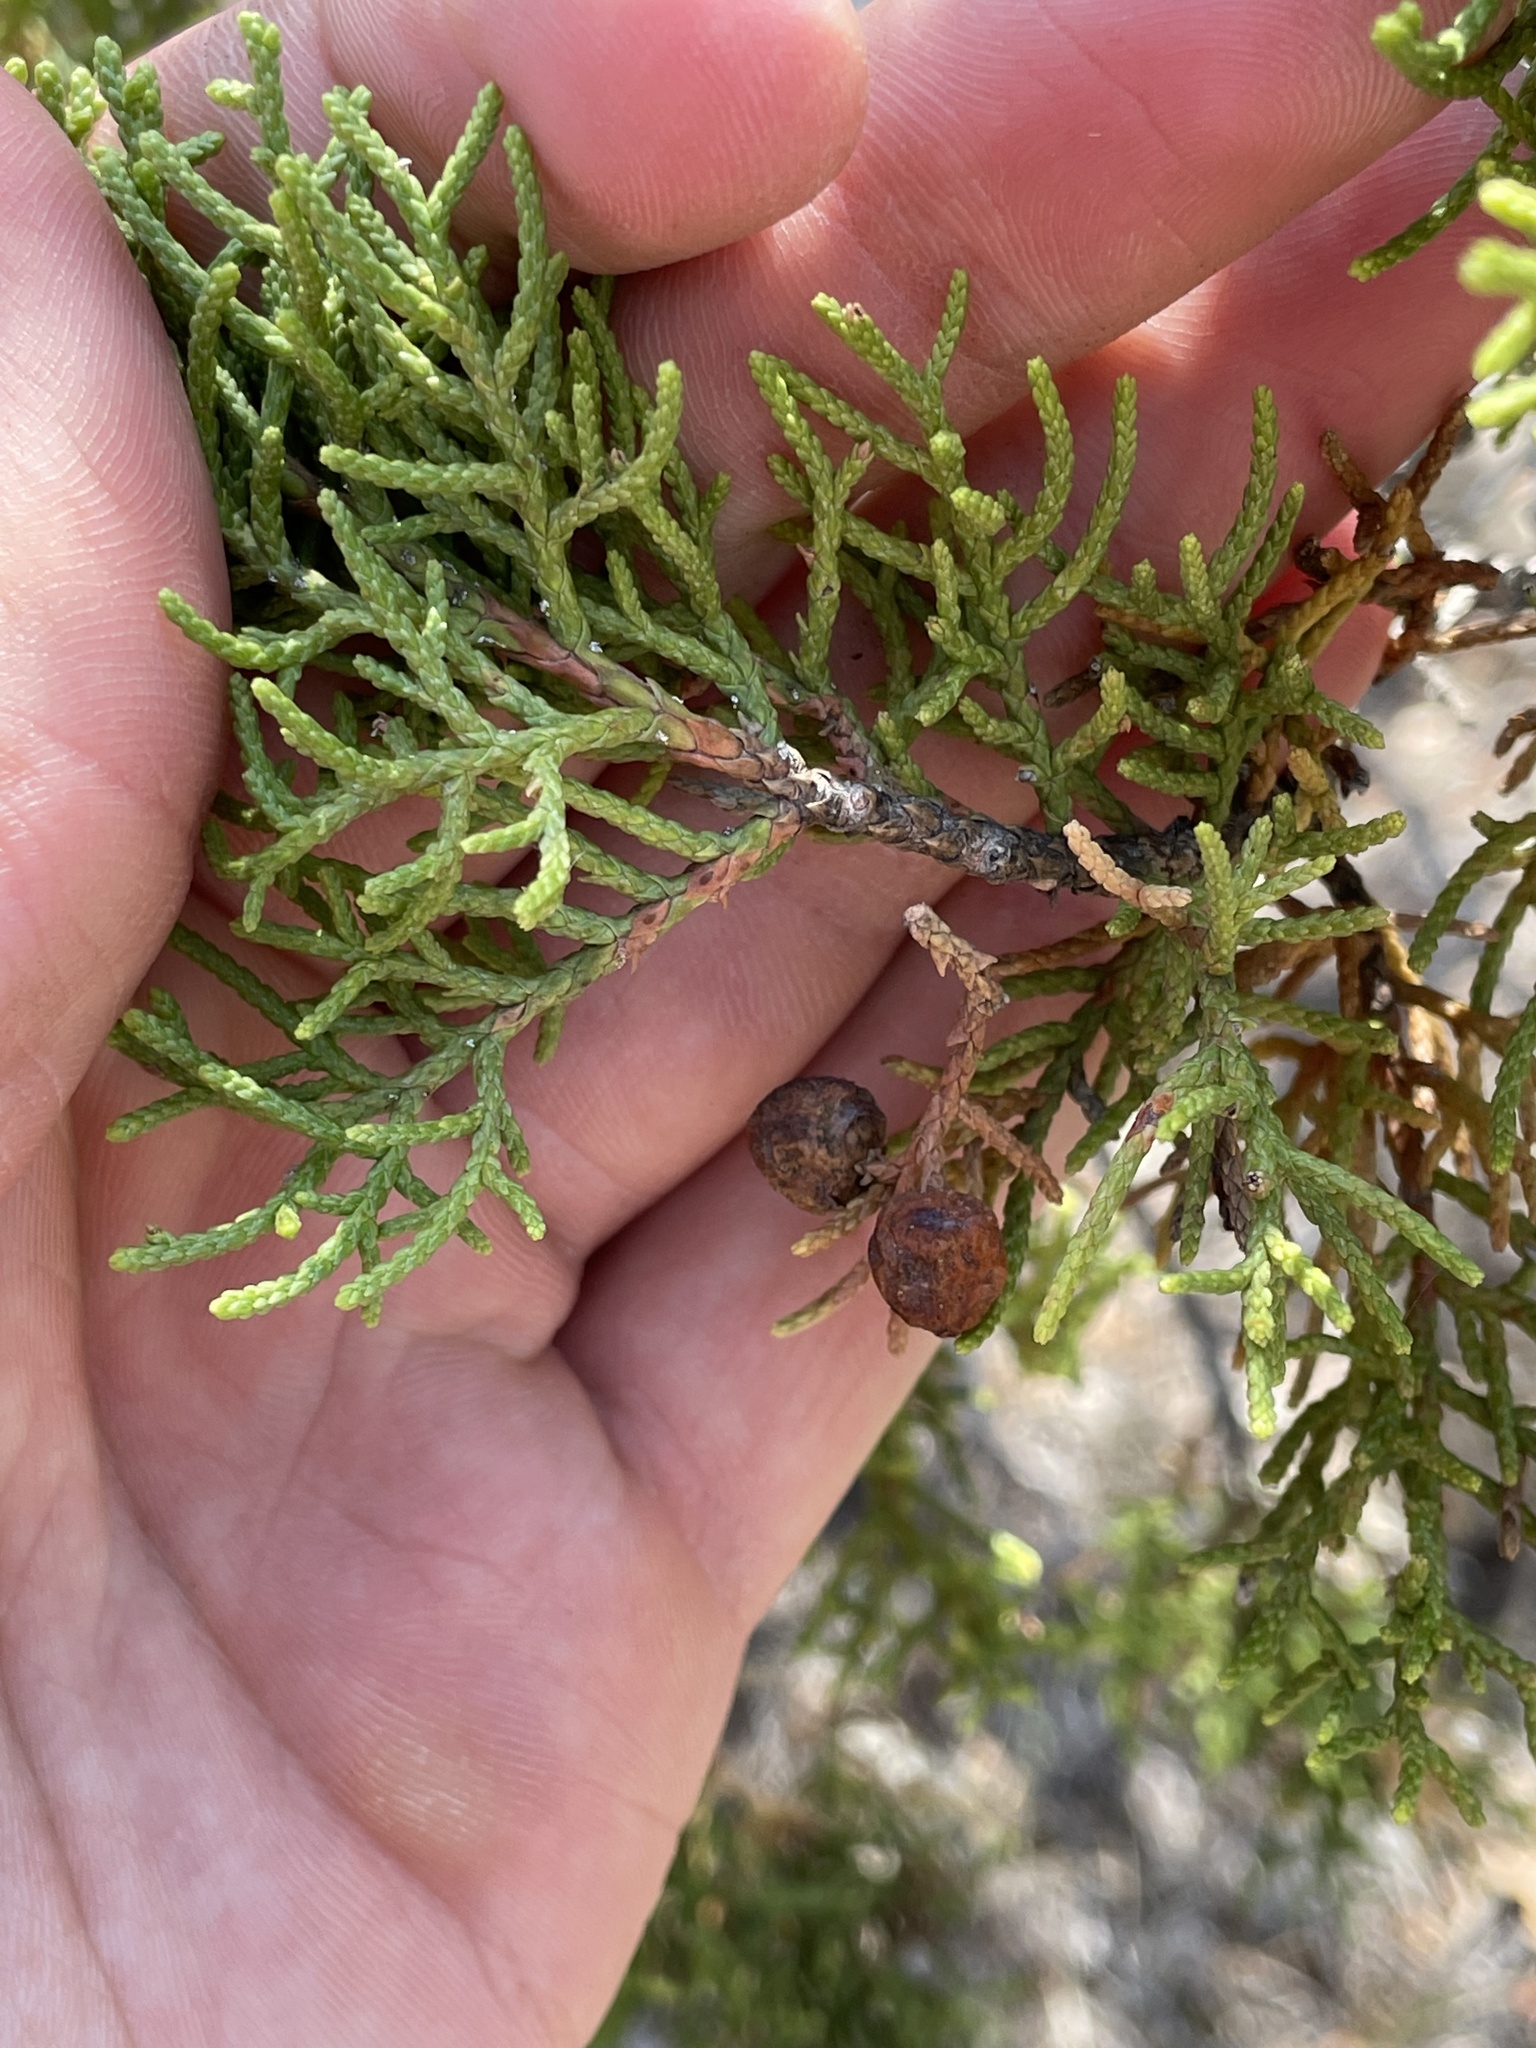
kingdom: Plantae
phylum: Tracheophyta
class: Pinopsida
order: Pinales
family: Cupressaceae
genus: Juniperus
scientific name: Juniperus pinchotii
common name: Pinchot juniper
